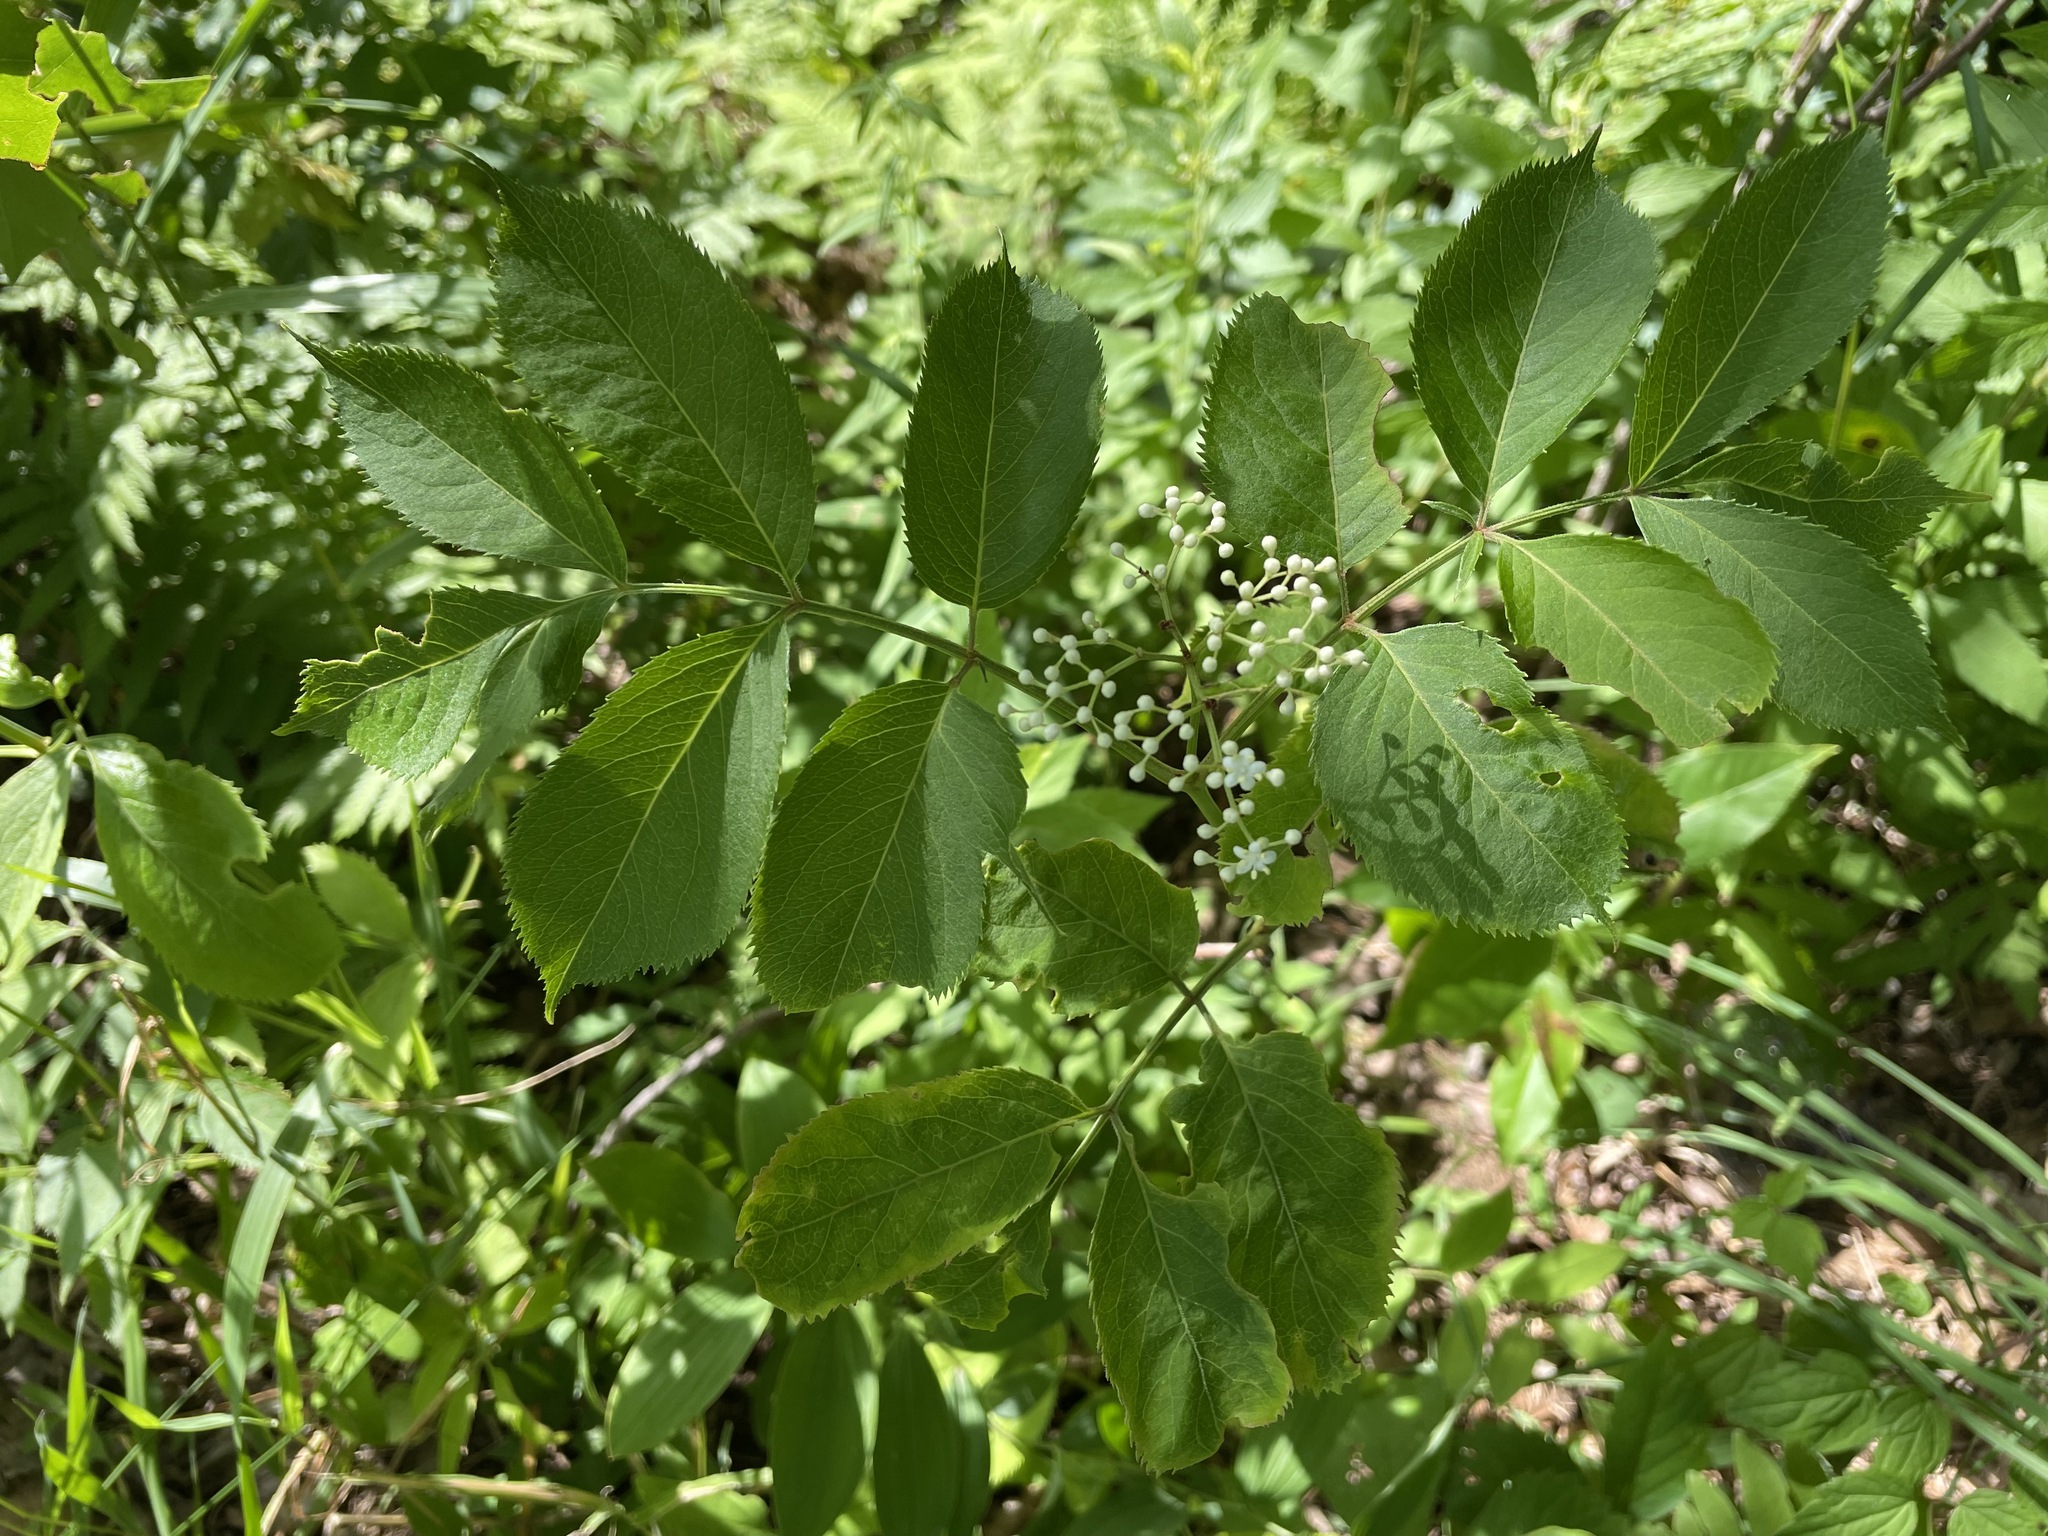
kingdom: Plantae
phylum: Tracheophyta
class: Magnoliopsida
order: Dipsacales
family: Viburnaceae
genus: Sambucus
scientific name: Sambucus canadensis
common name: American elder
